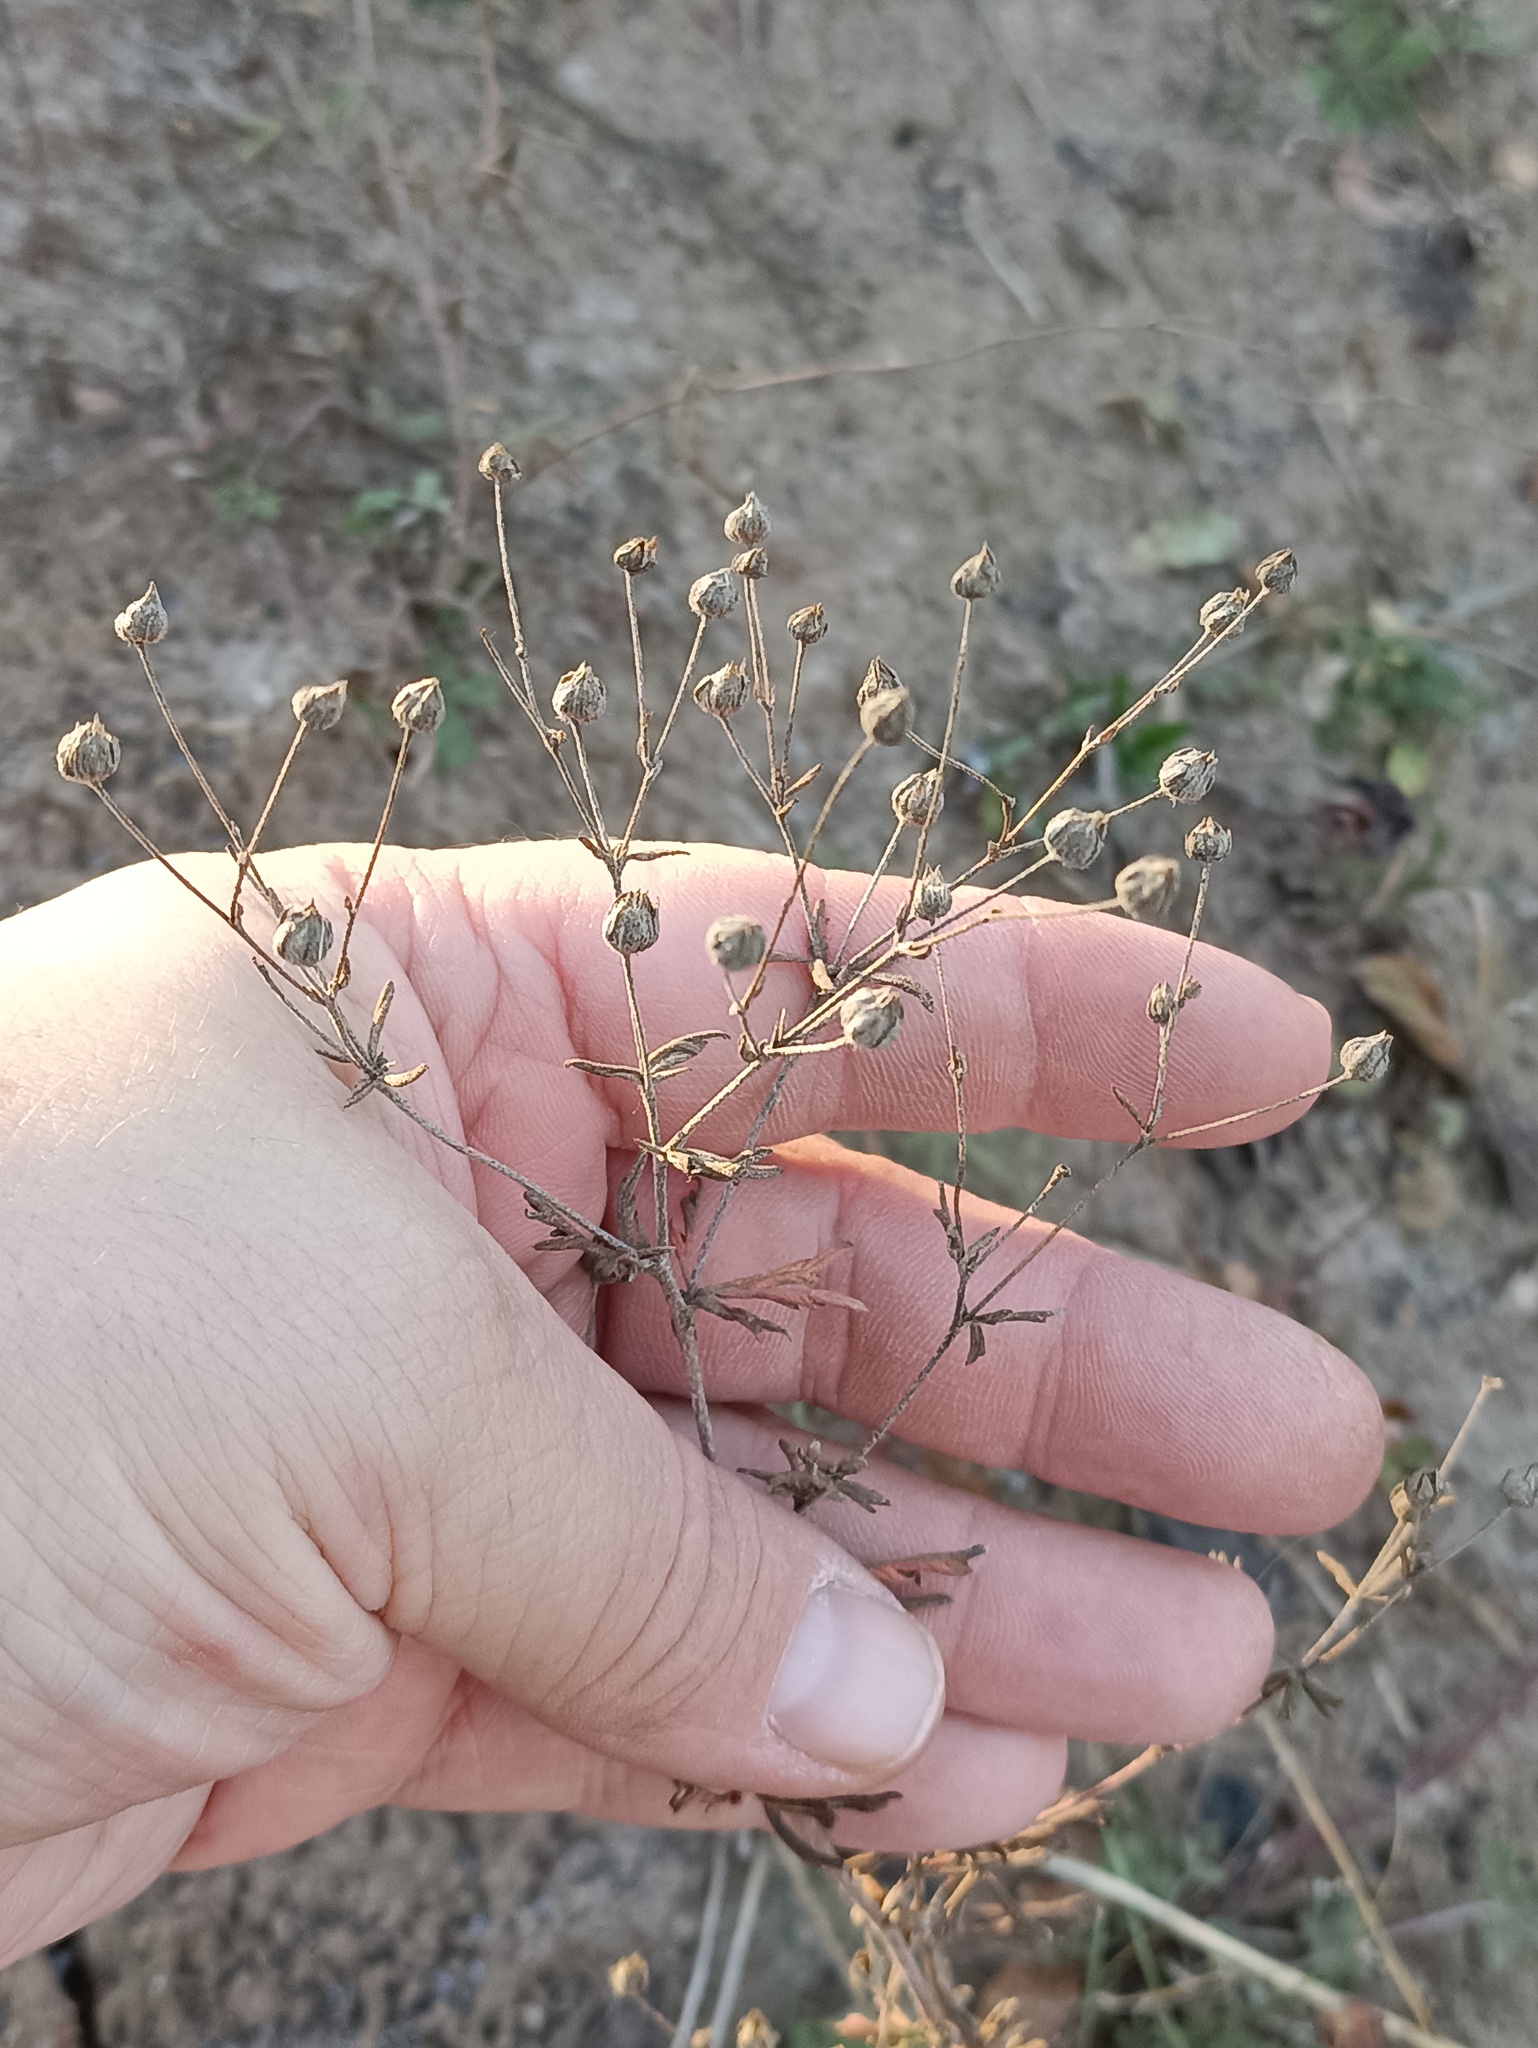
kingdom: Plantae
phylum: Tracheophyta
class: Magnoliopsida
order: Rosales
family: Rosaceae
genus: Potentilla
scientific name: Potentilla argentea
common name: Hoary cinquefoil
